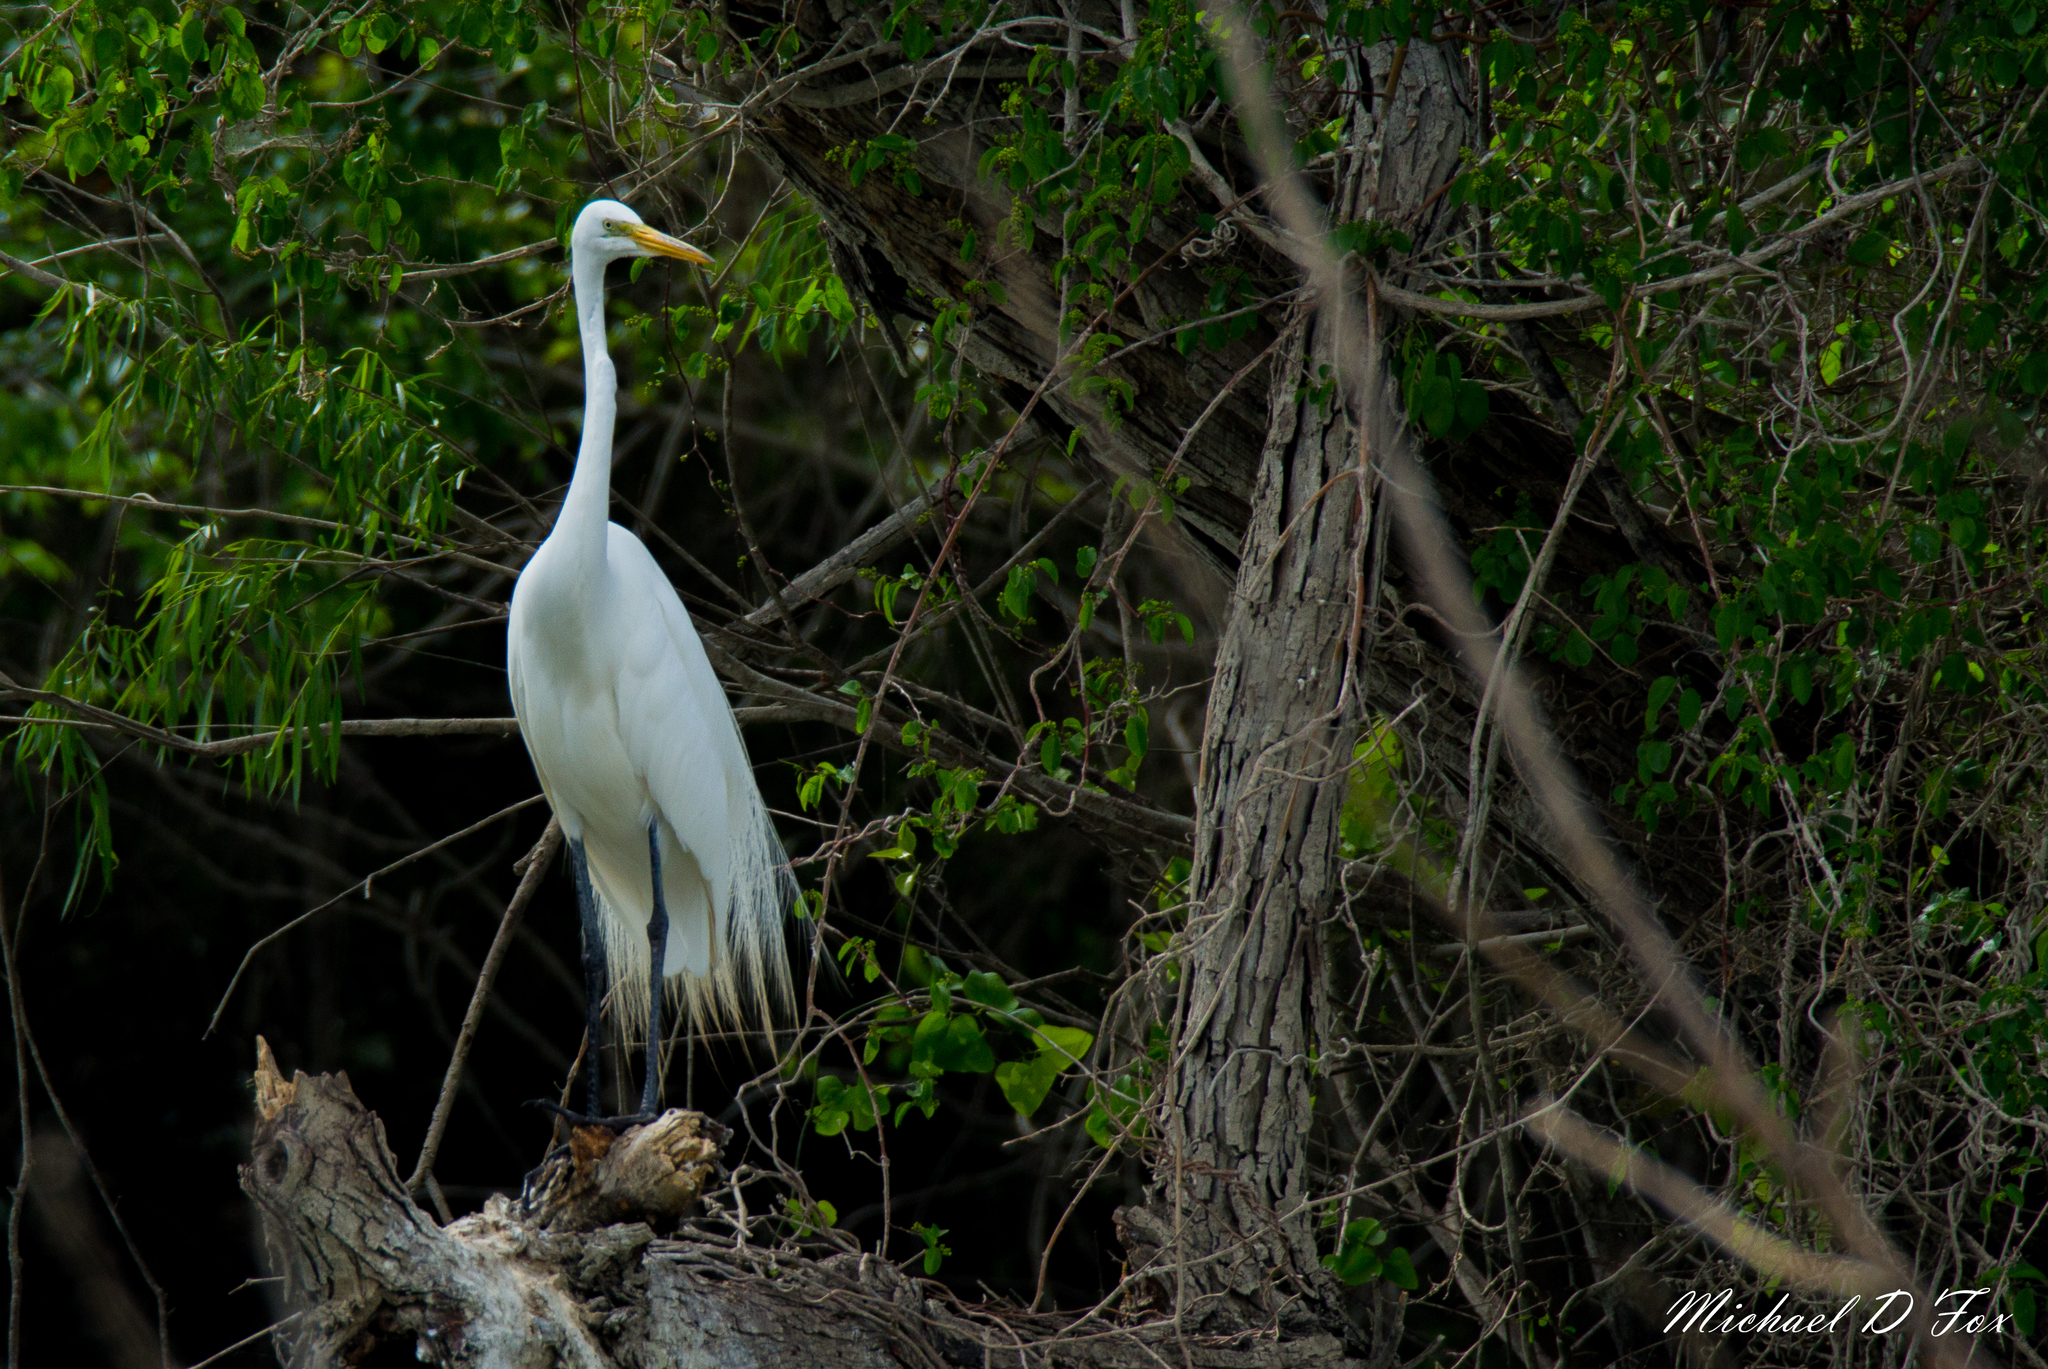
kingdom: Animalia
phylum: Chordata
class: Aves
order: Pelecaniformes
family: Ardeidae
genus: Ardea
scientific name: Ardea alba
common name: Great egret
